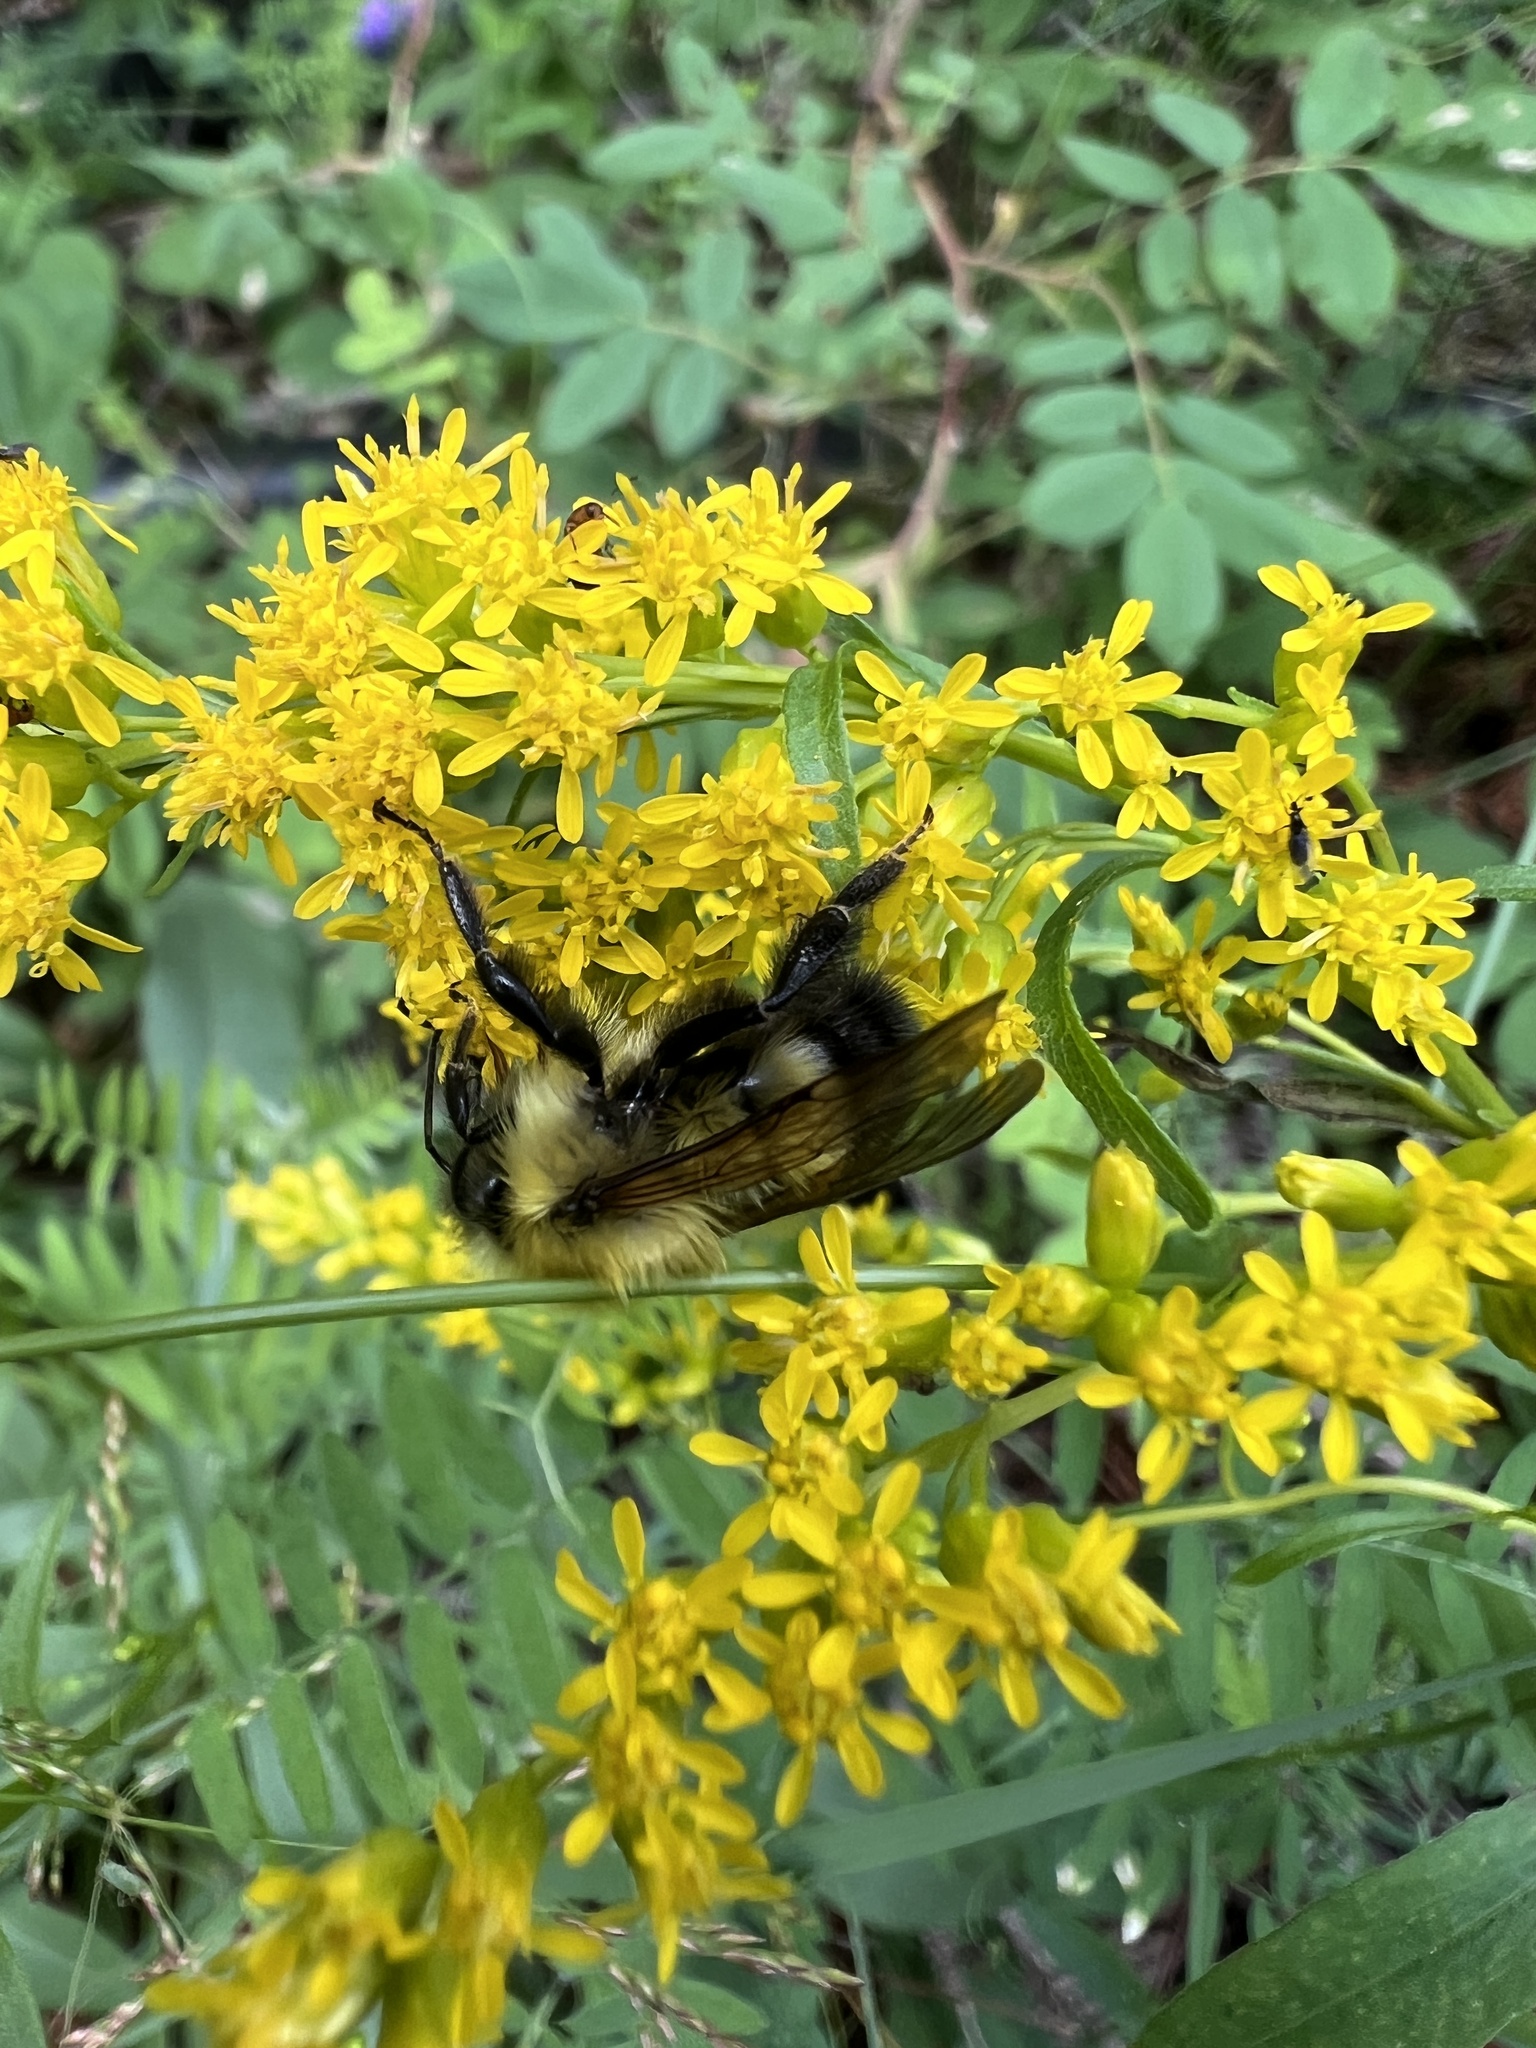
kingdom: Animalia
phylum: Arthropoda
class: Insecta
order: Hymenoptera
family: Apidae
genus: Bombus
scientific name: Bombus perplexus
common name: Confusing bumble bee
